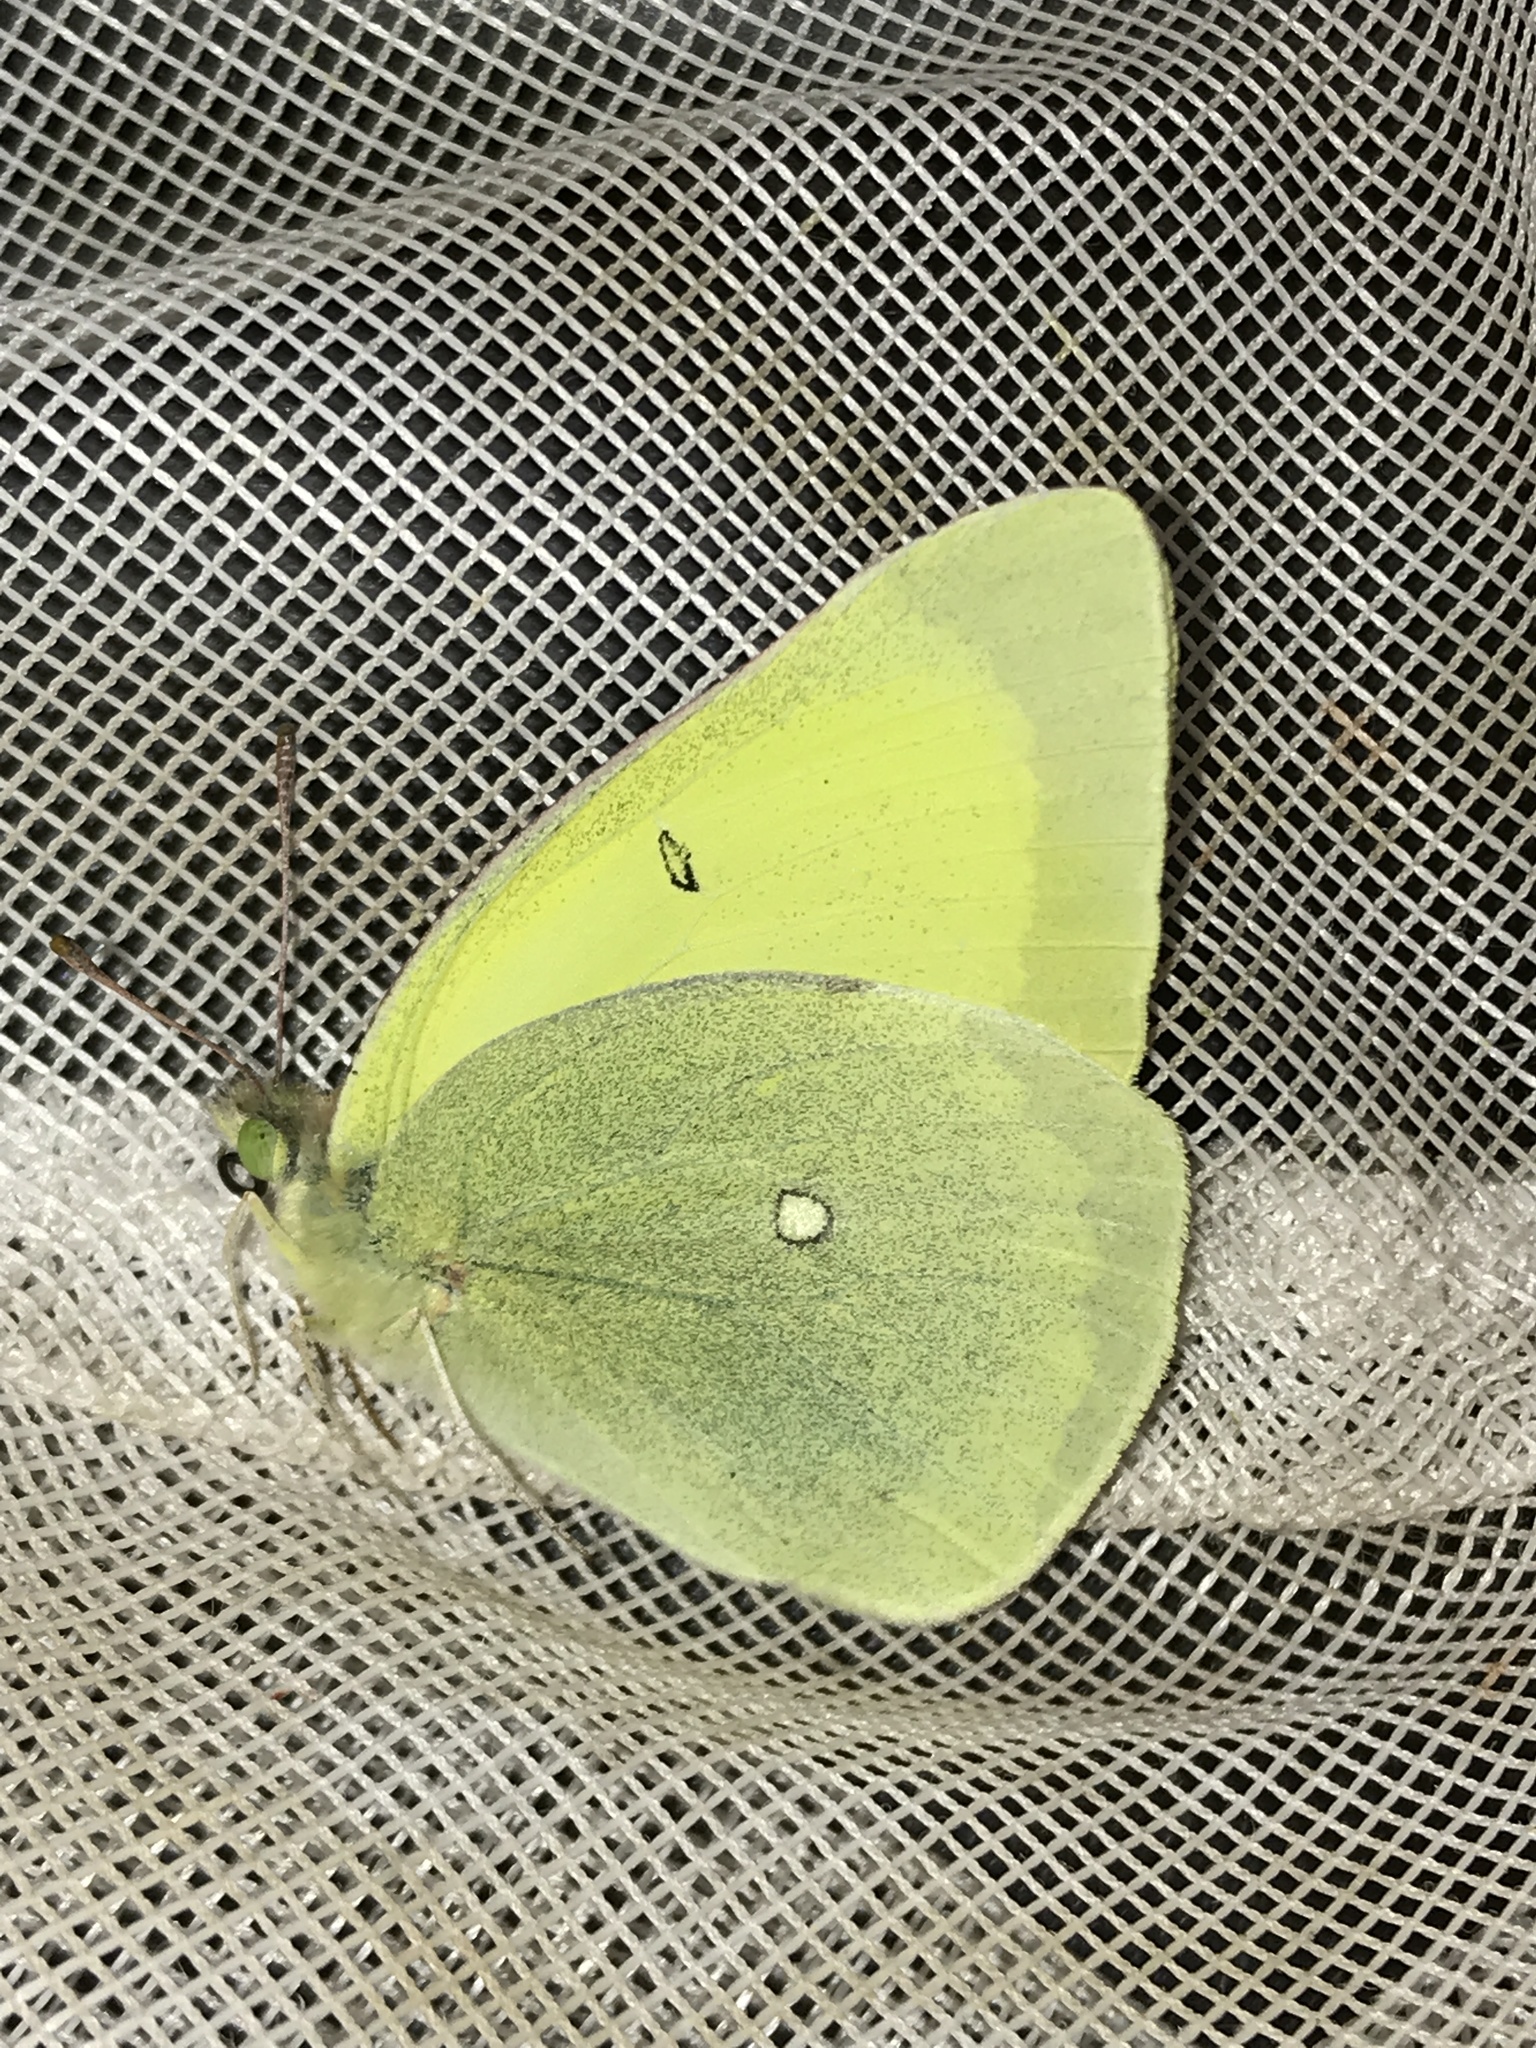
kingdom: Animalia
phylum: Arthropoda
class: Insecta
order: Lepidoptera
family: Pieridae
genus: Colias
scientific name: Colias alexandra
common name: Alexandra sulphur
